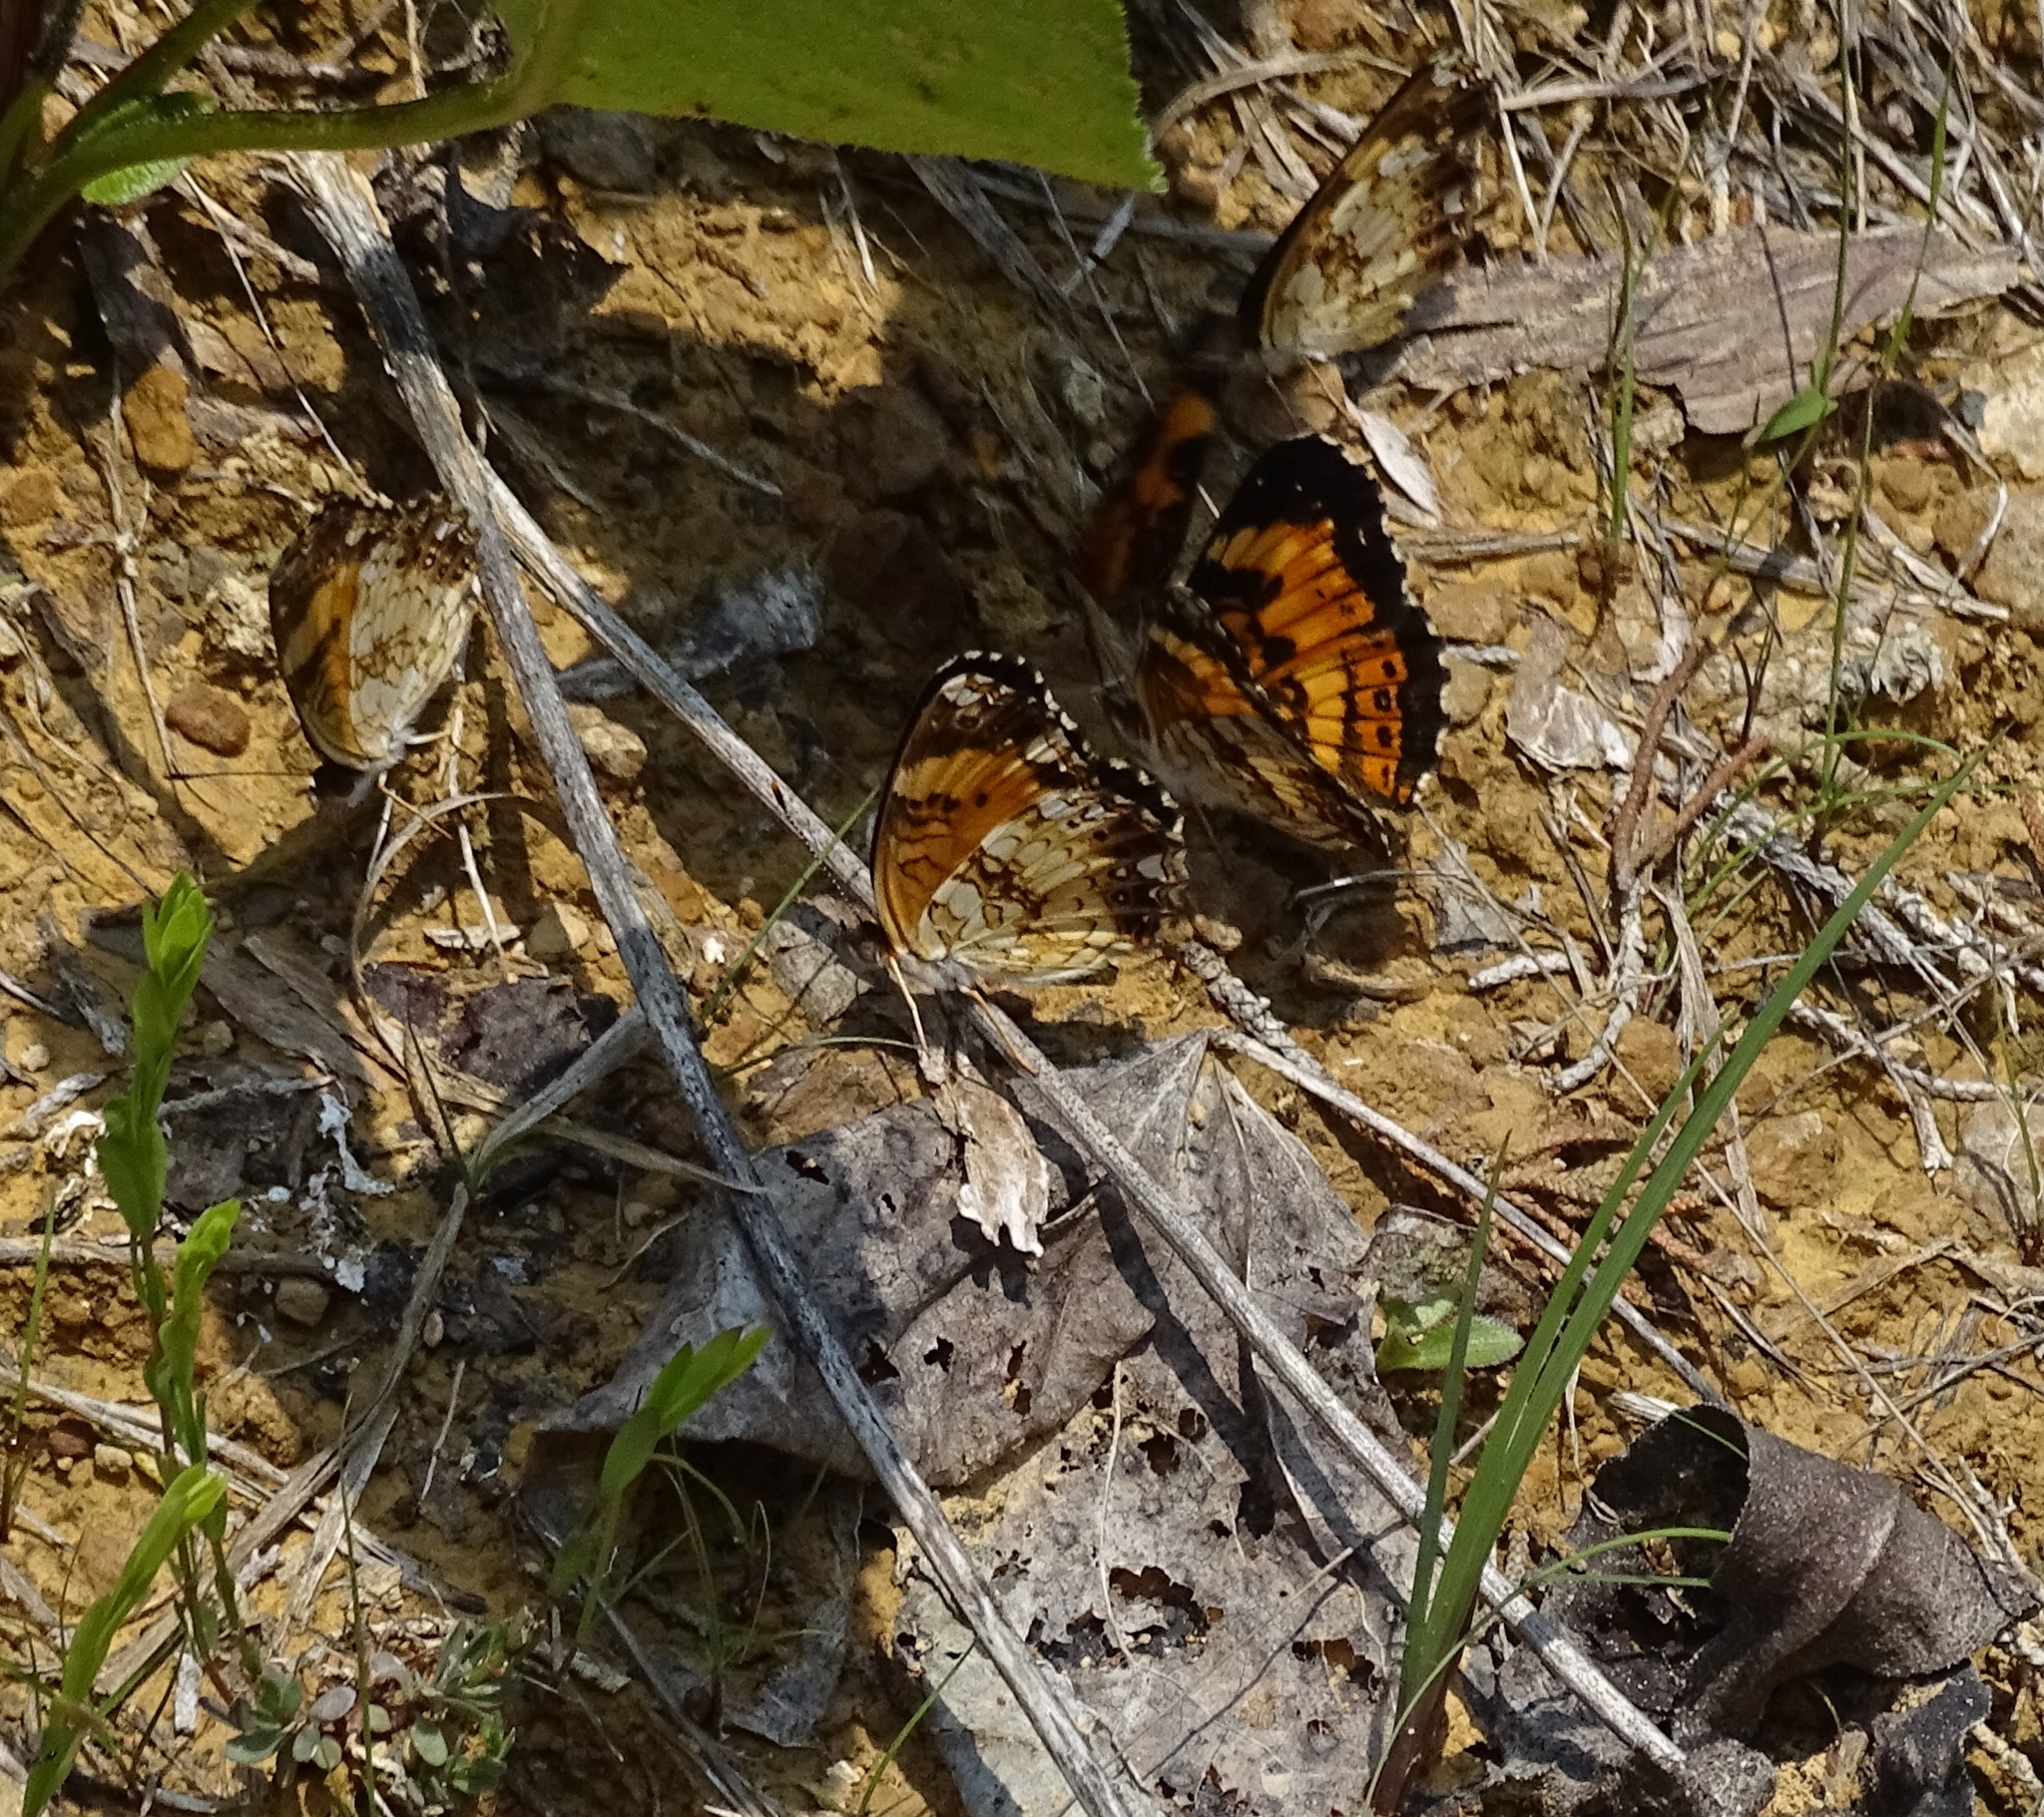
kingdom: Animalia
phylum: Arthropoda
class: Insecta
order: Lepidoptera
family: Nymphalidae
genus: Chlosyne
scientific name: Chlosyne nycteis
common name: Silvery checkerspot
